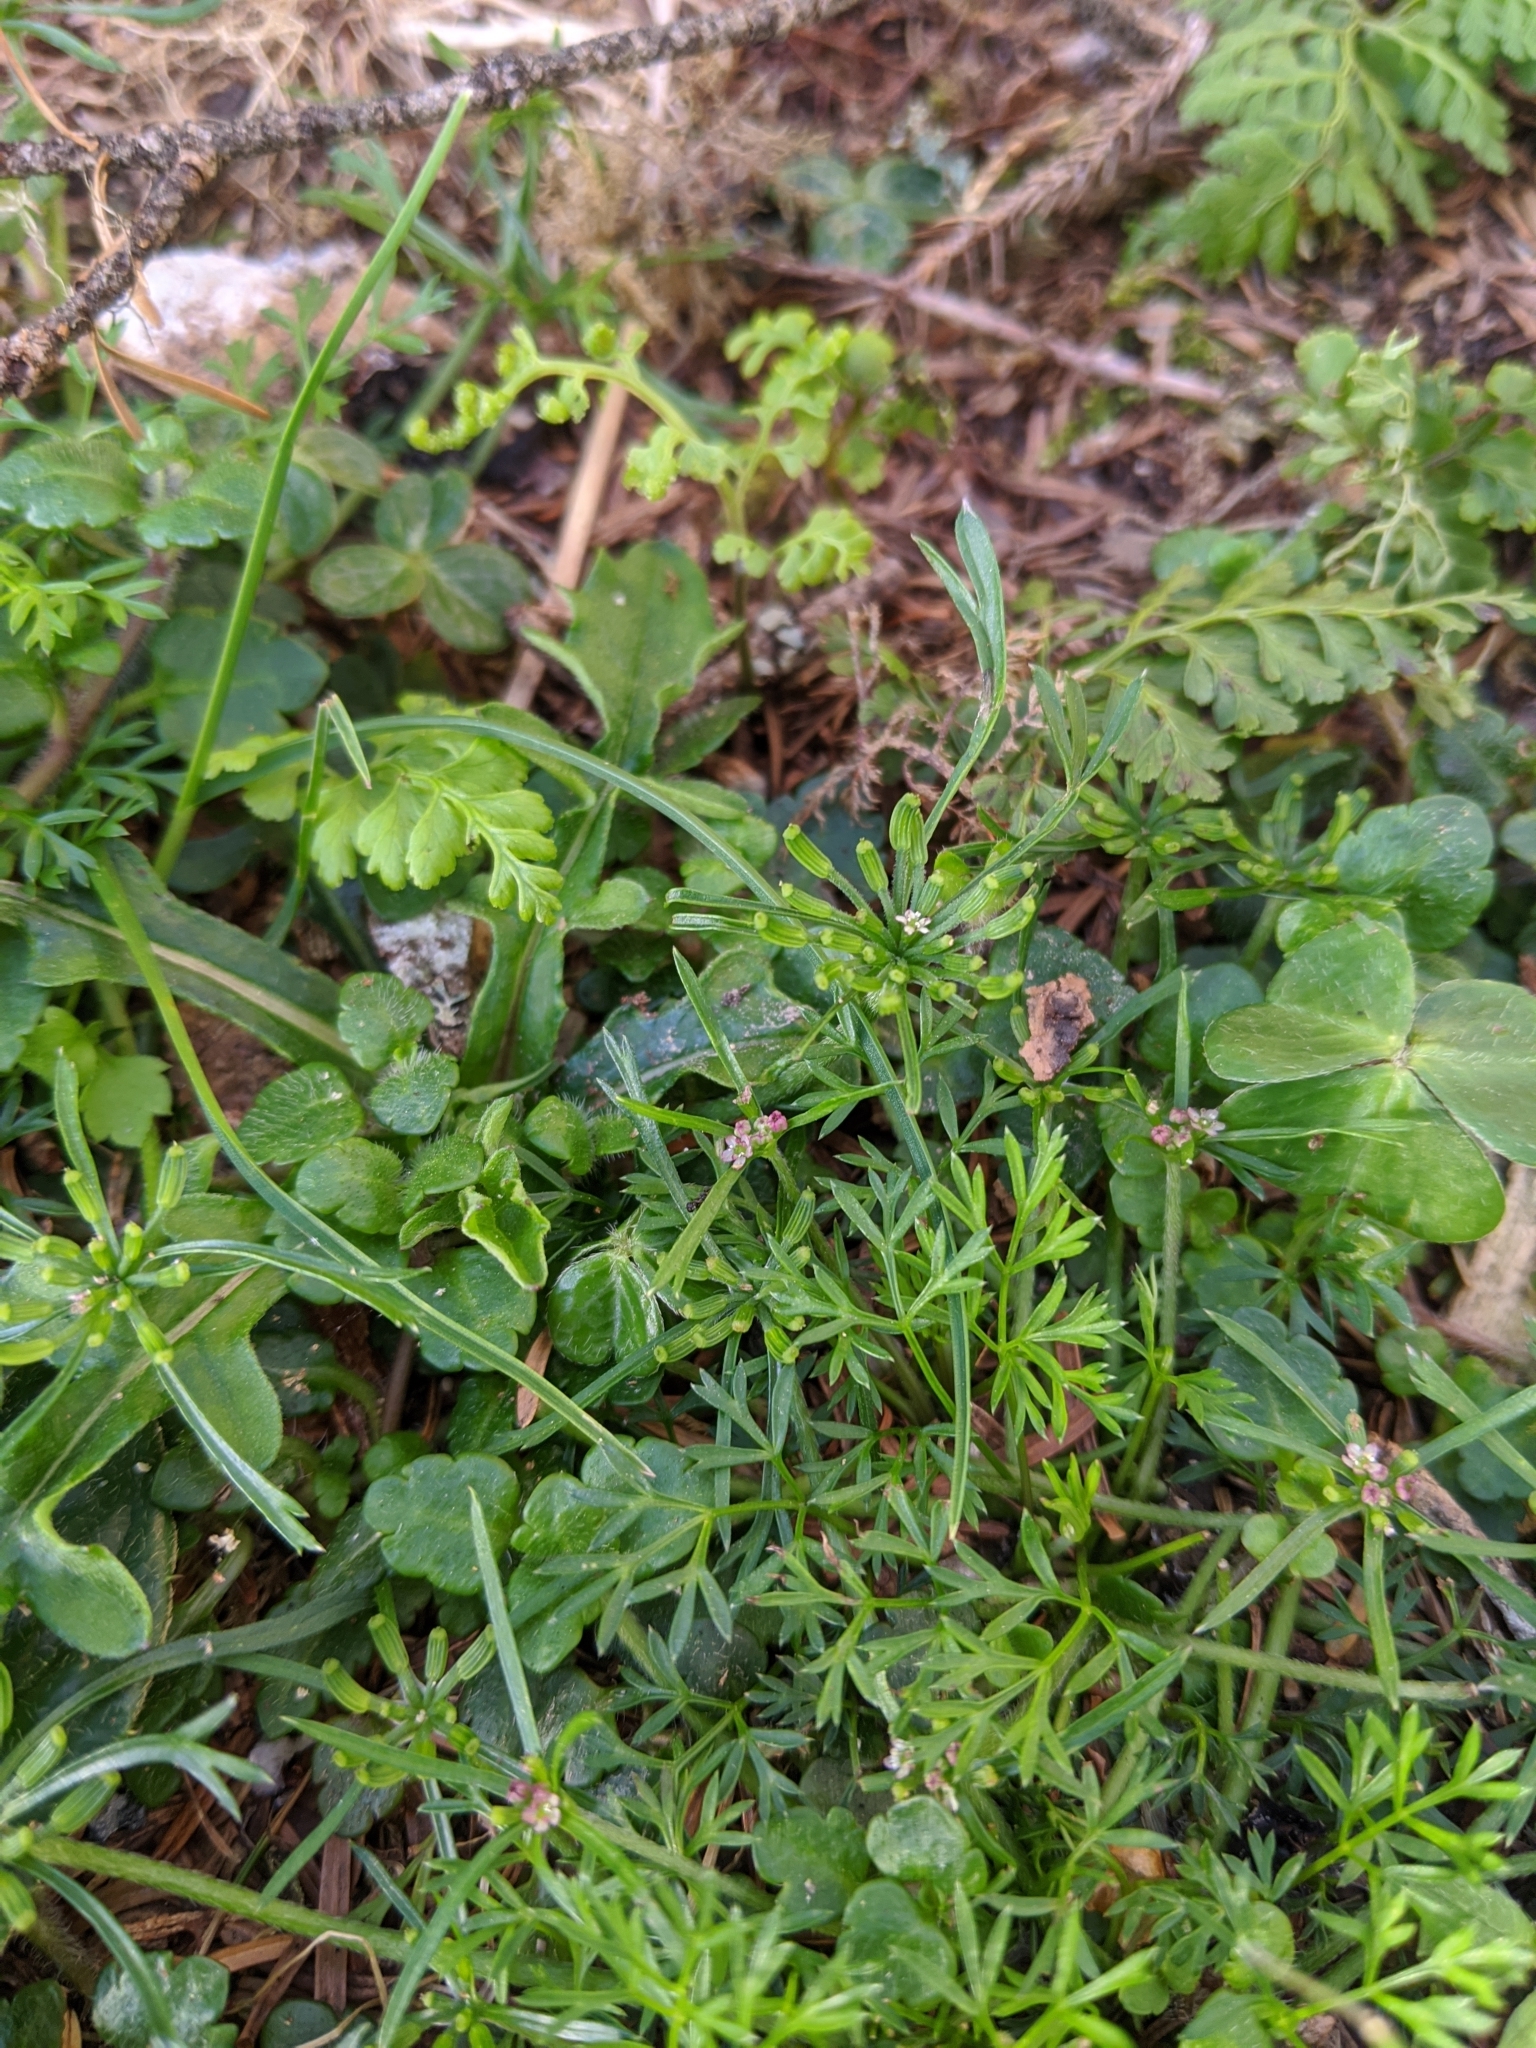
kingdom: Plantae
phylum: Tracheophyta
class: Magnoliopsida
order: Apiales
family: Apiaceae
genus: Chaerophyllum
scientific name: Chaerophyllum involucratum
